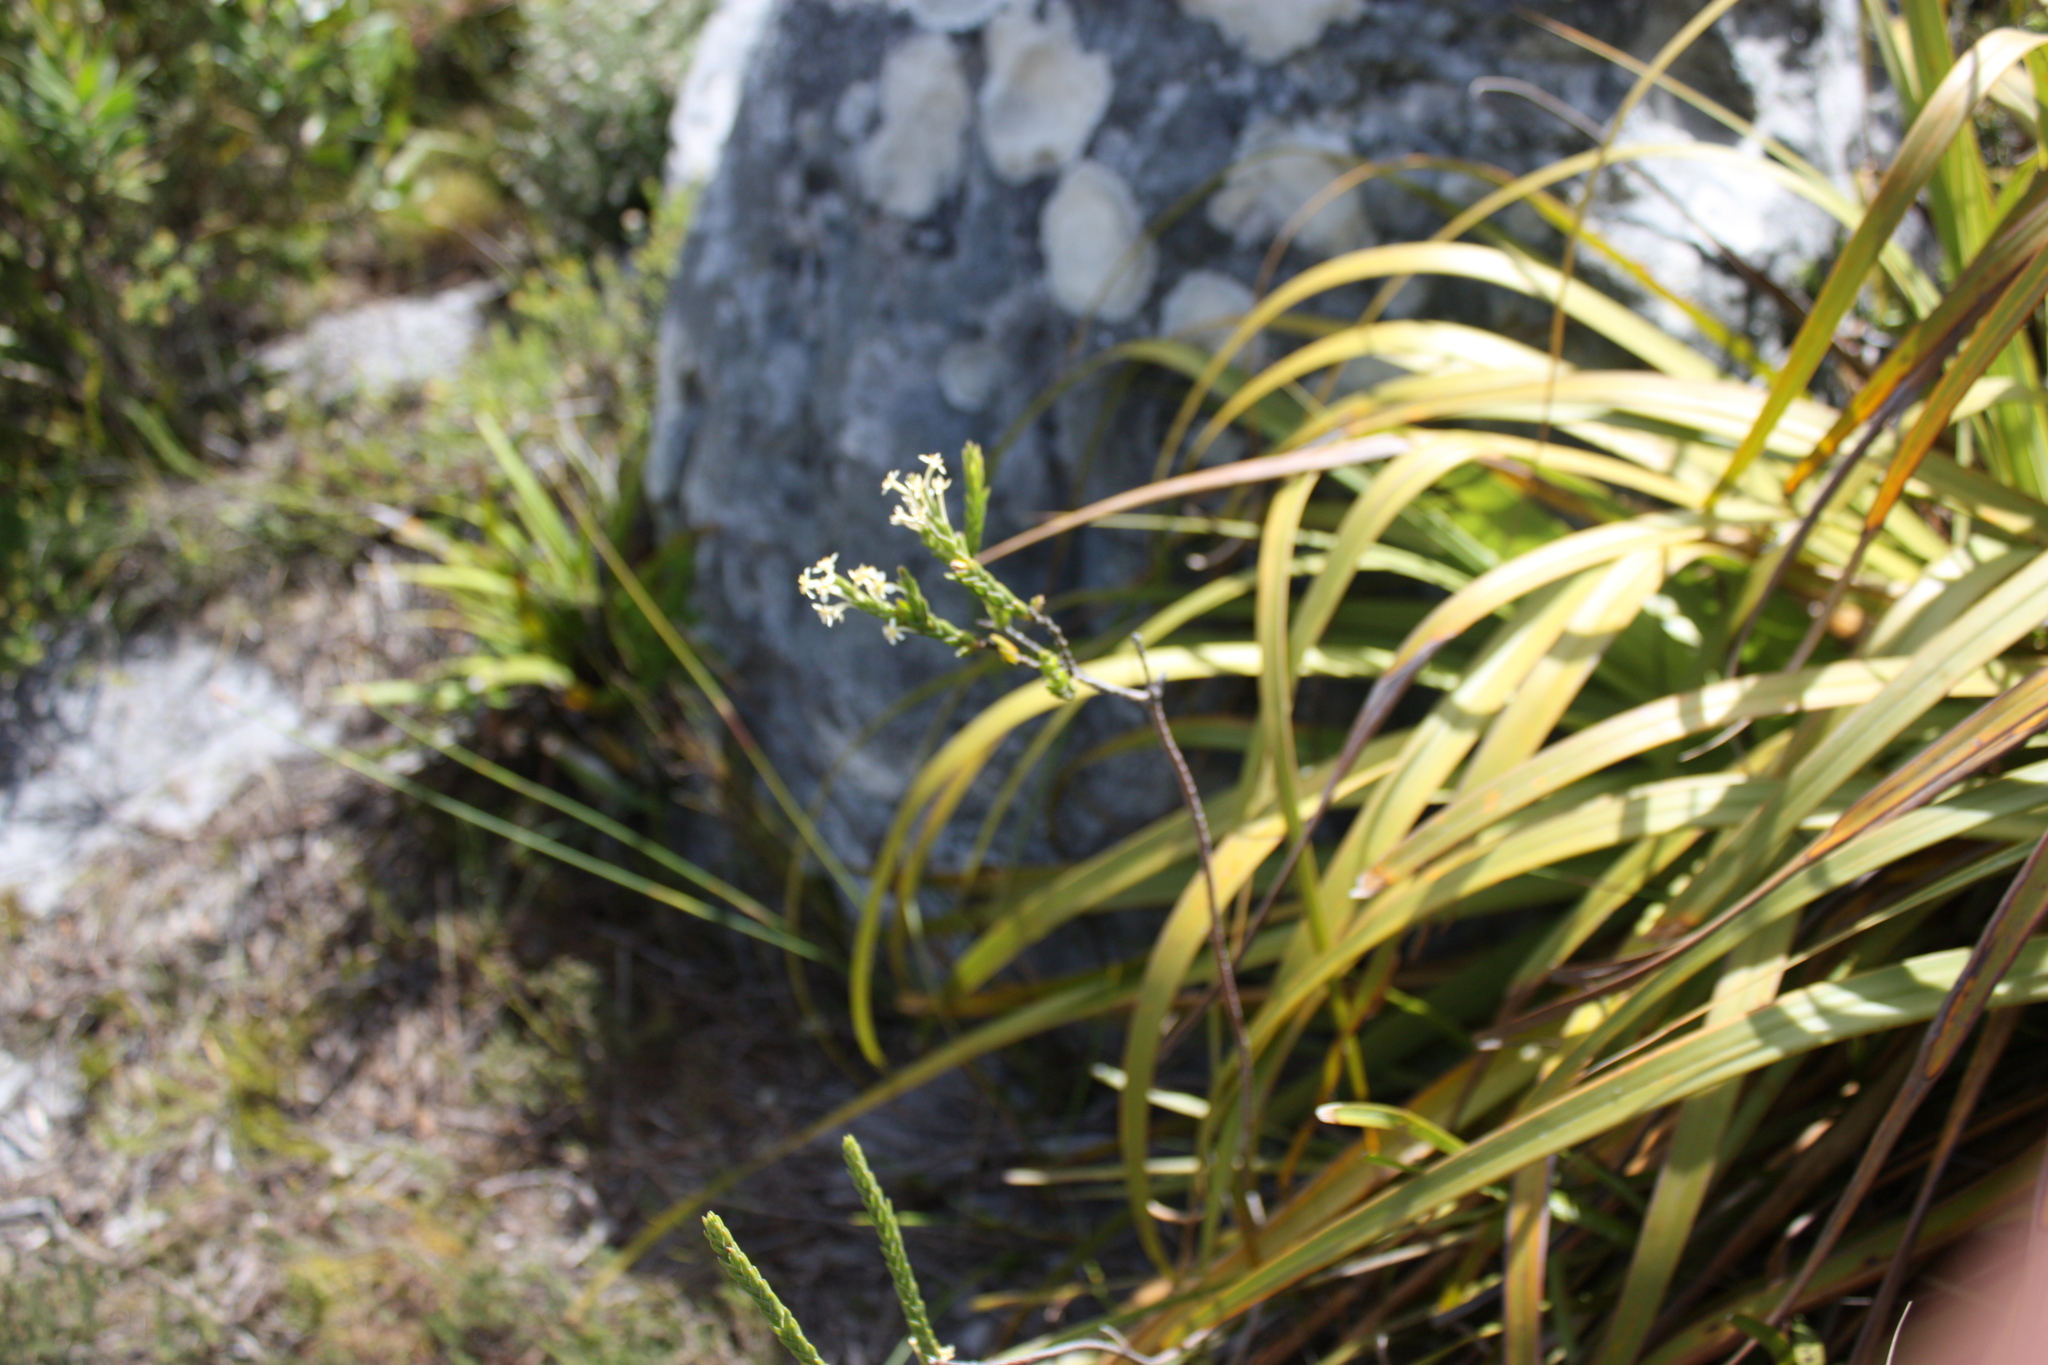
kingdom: Plantae
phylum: Tracheophyta
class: Magnoliopsida
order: Malvales
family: Thymelaeaceae
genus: Struthiola
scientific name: Struthiola ciliata
